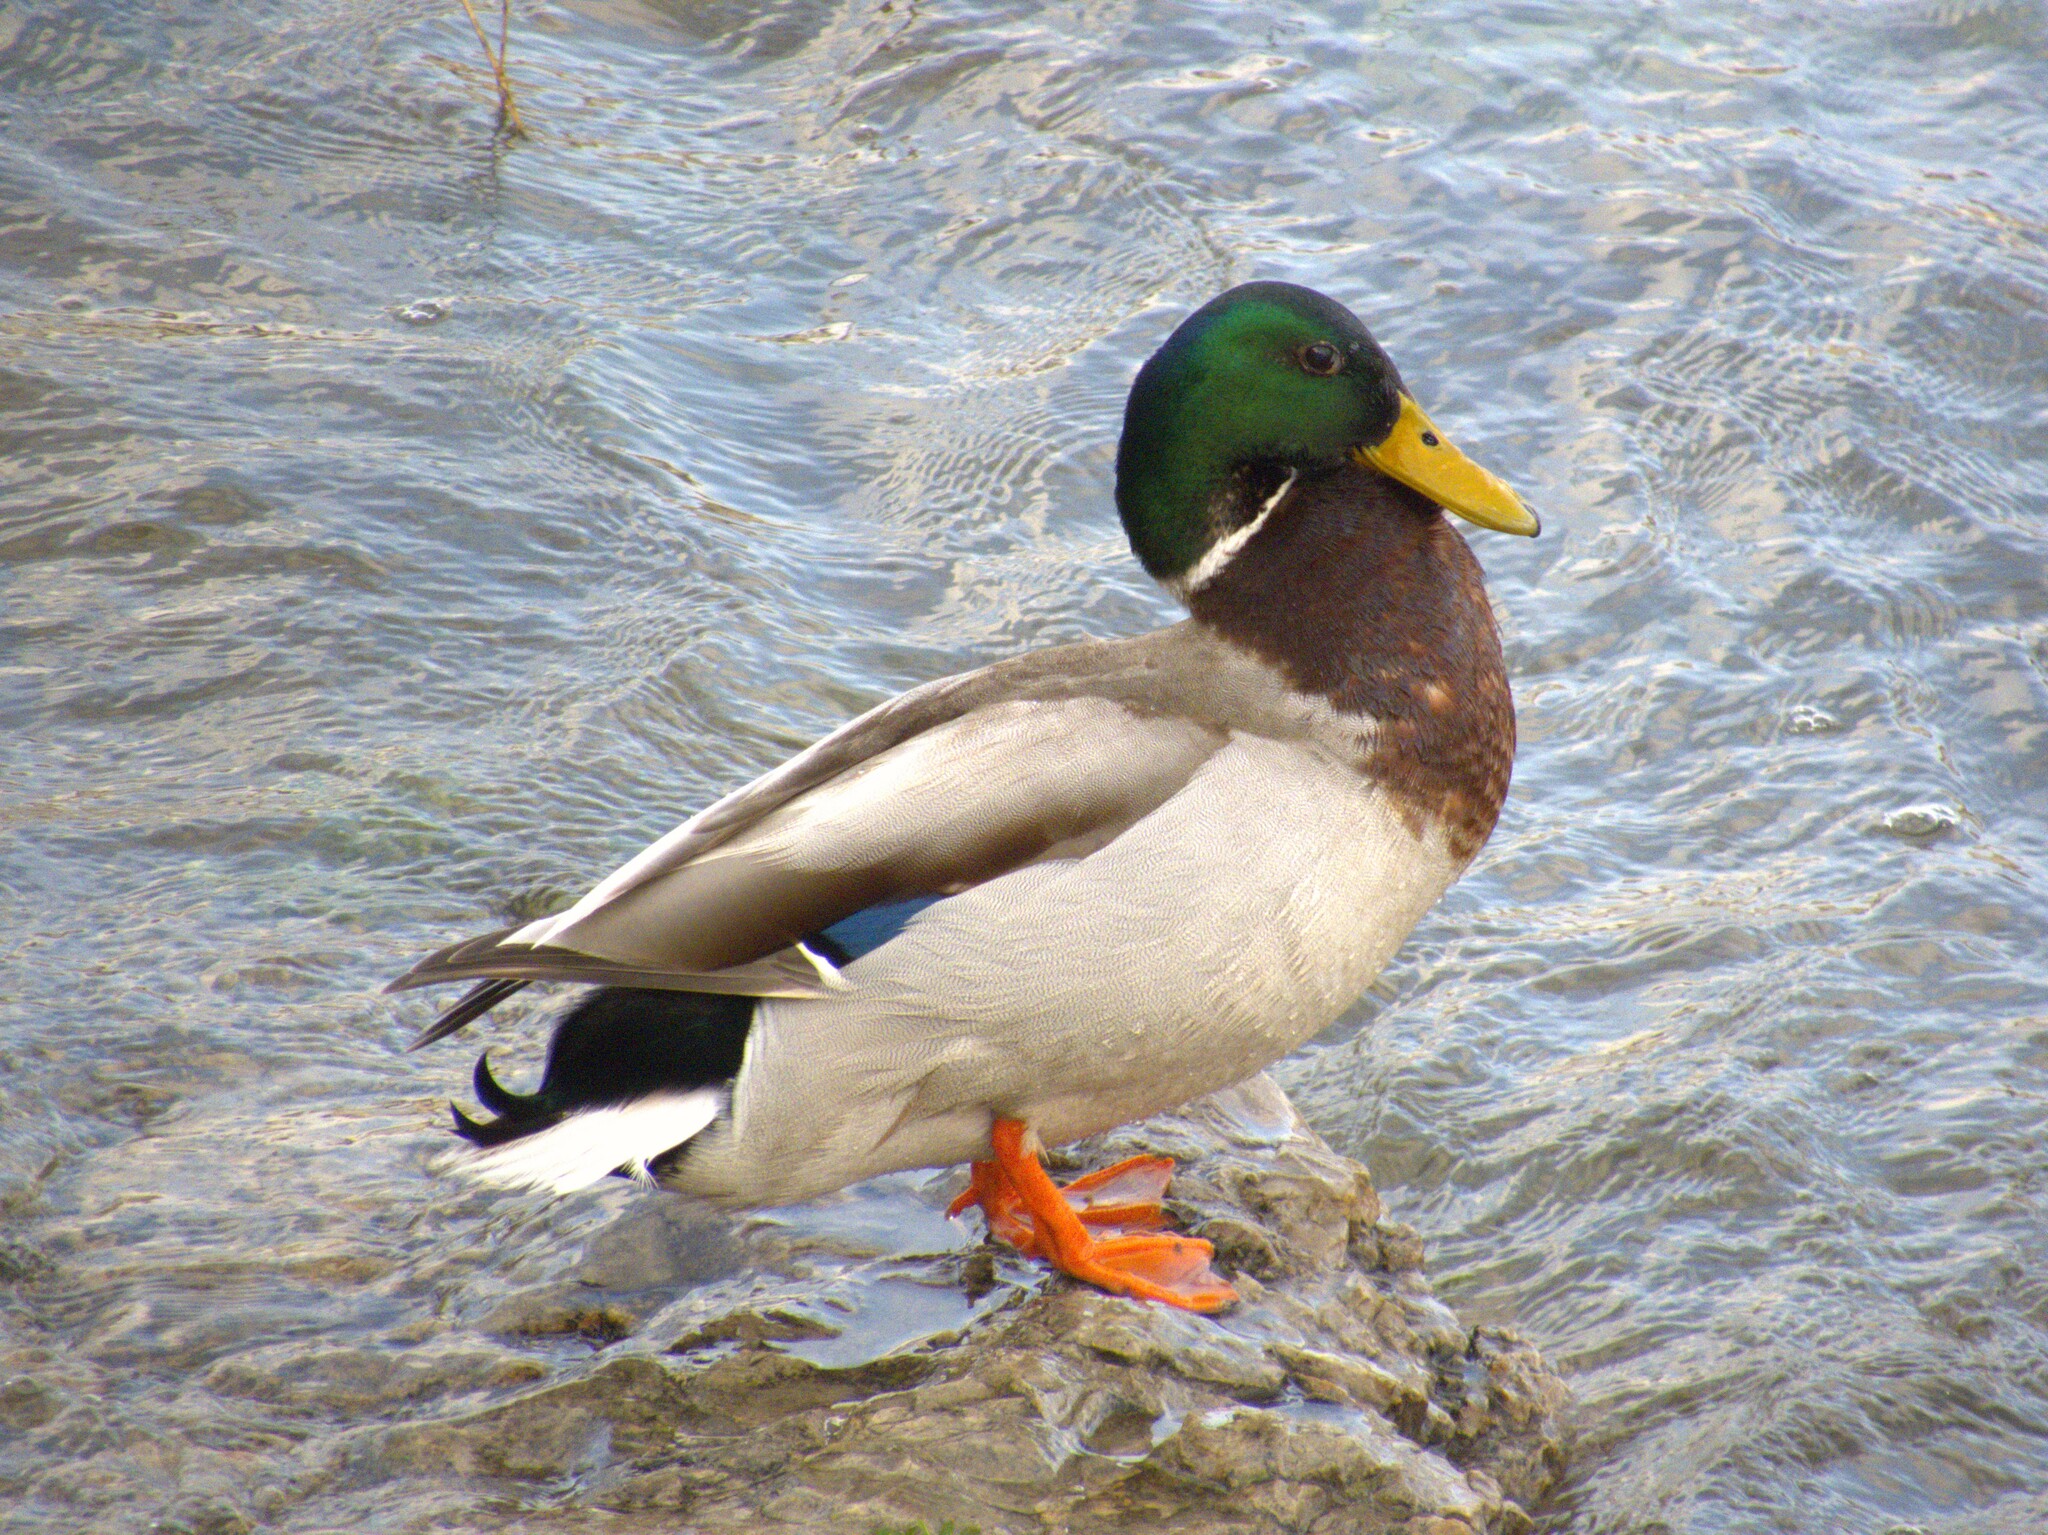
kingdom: Animalia
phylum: Chordata
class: Aves
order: Anseriformes
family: Anatidae
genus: Anas
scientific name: Anas platyrhynchos
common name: Mallard
